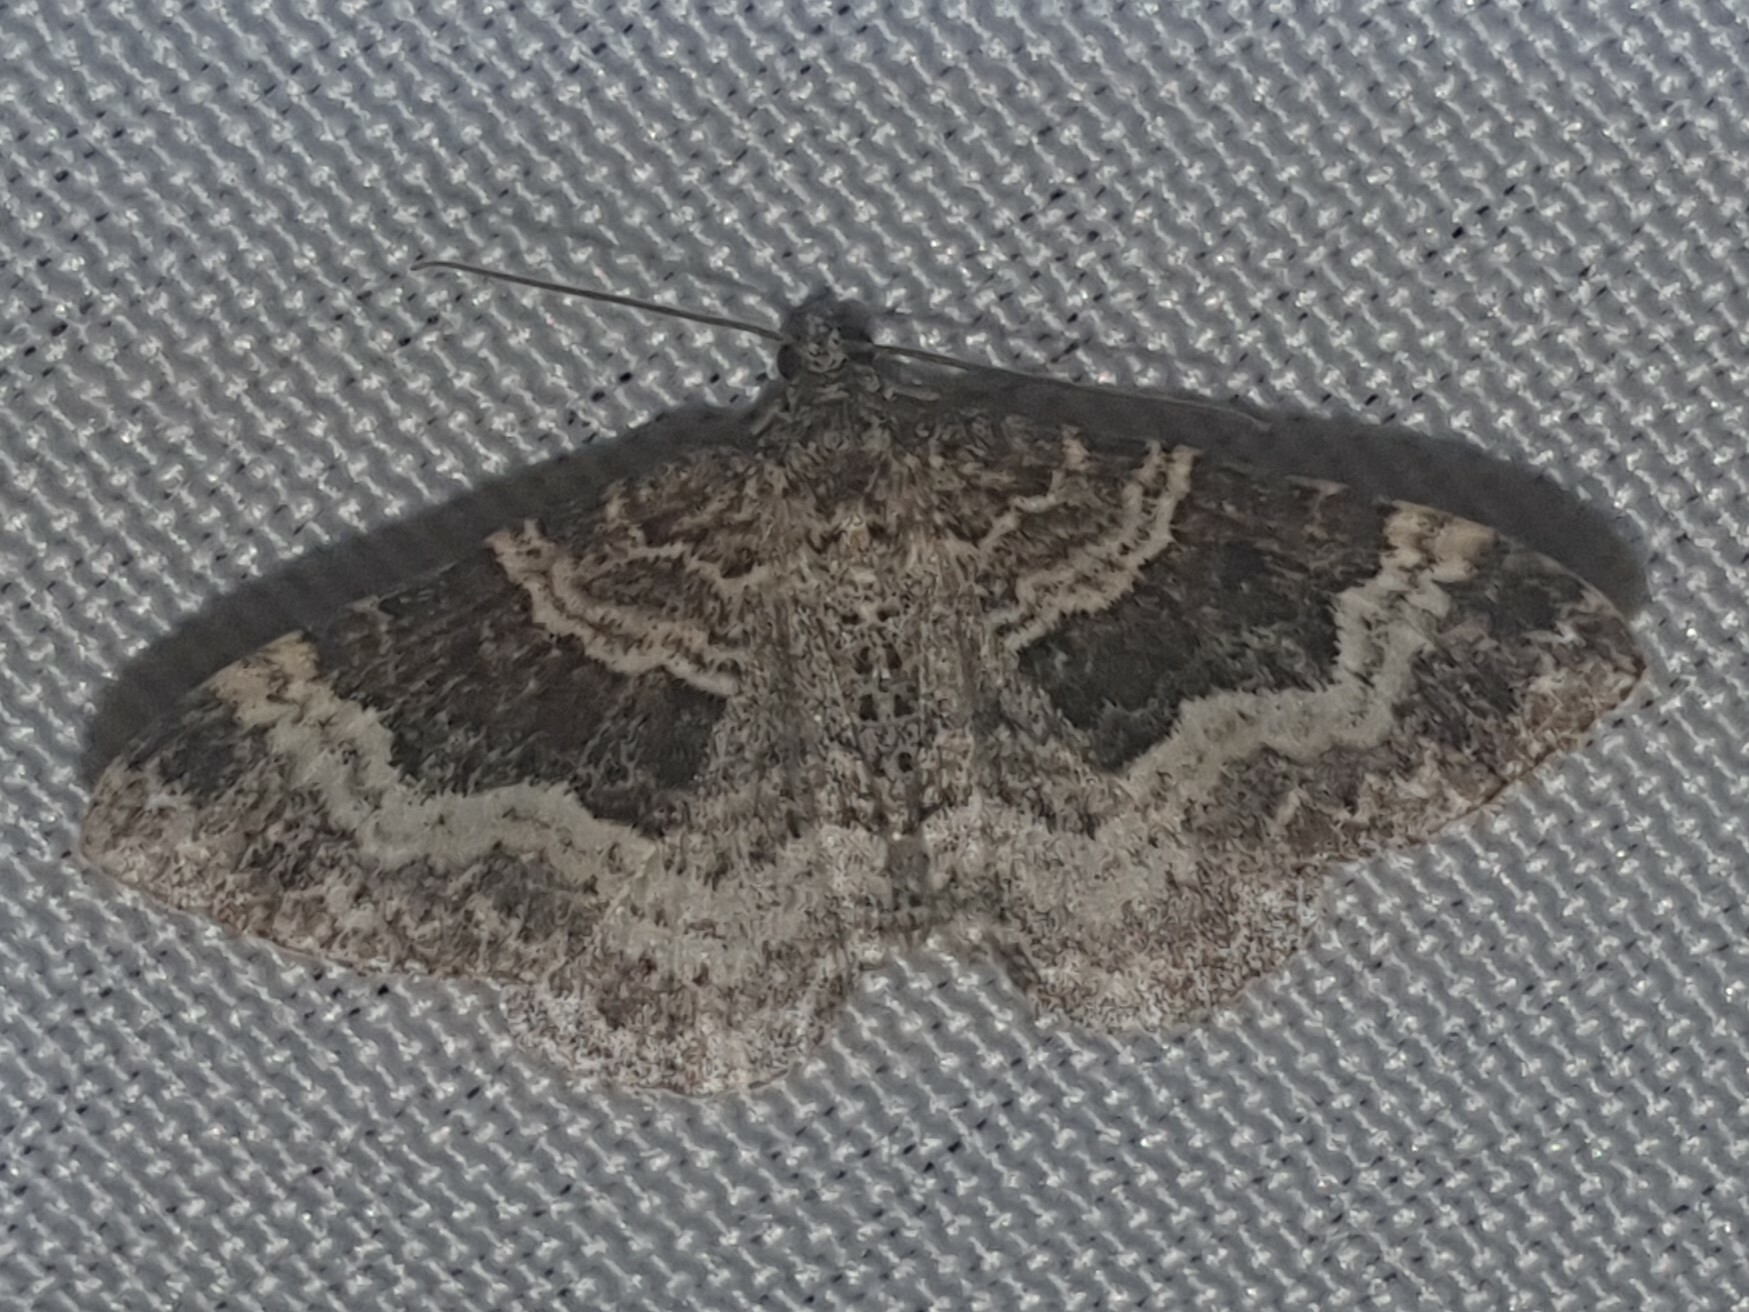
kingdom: Animalia
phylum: Arthropoda
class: Insecta
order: Lepidoptera
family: Geometridae
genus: Epirrhoe
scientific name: Epirrhoe alternata
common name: Common carpet
